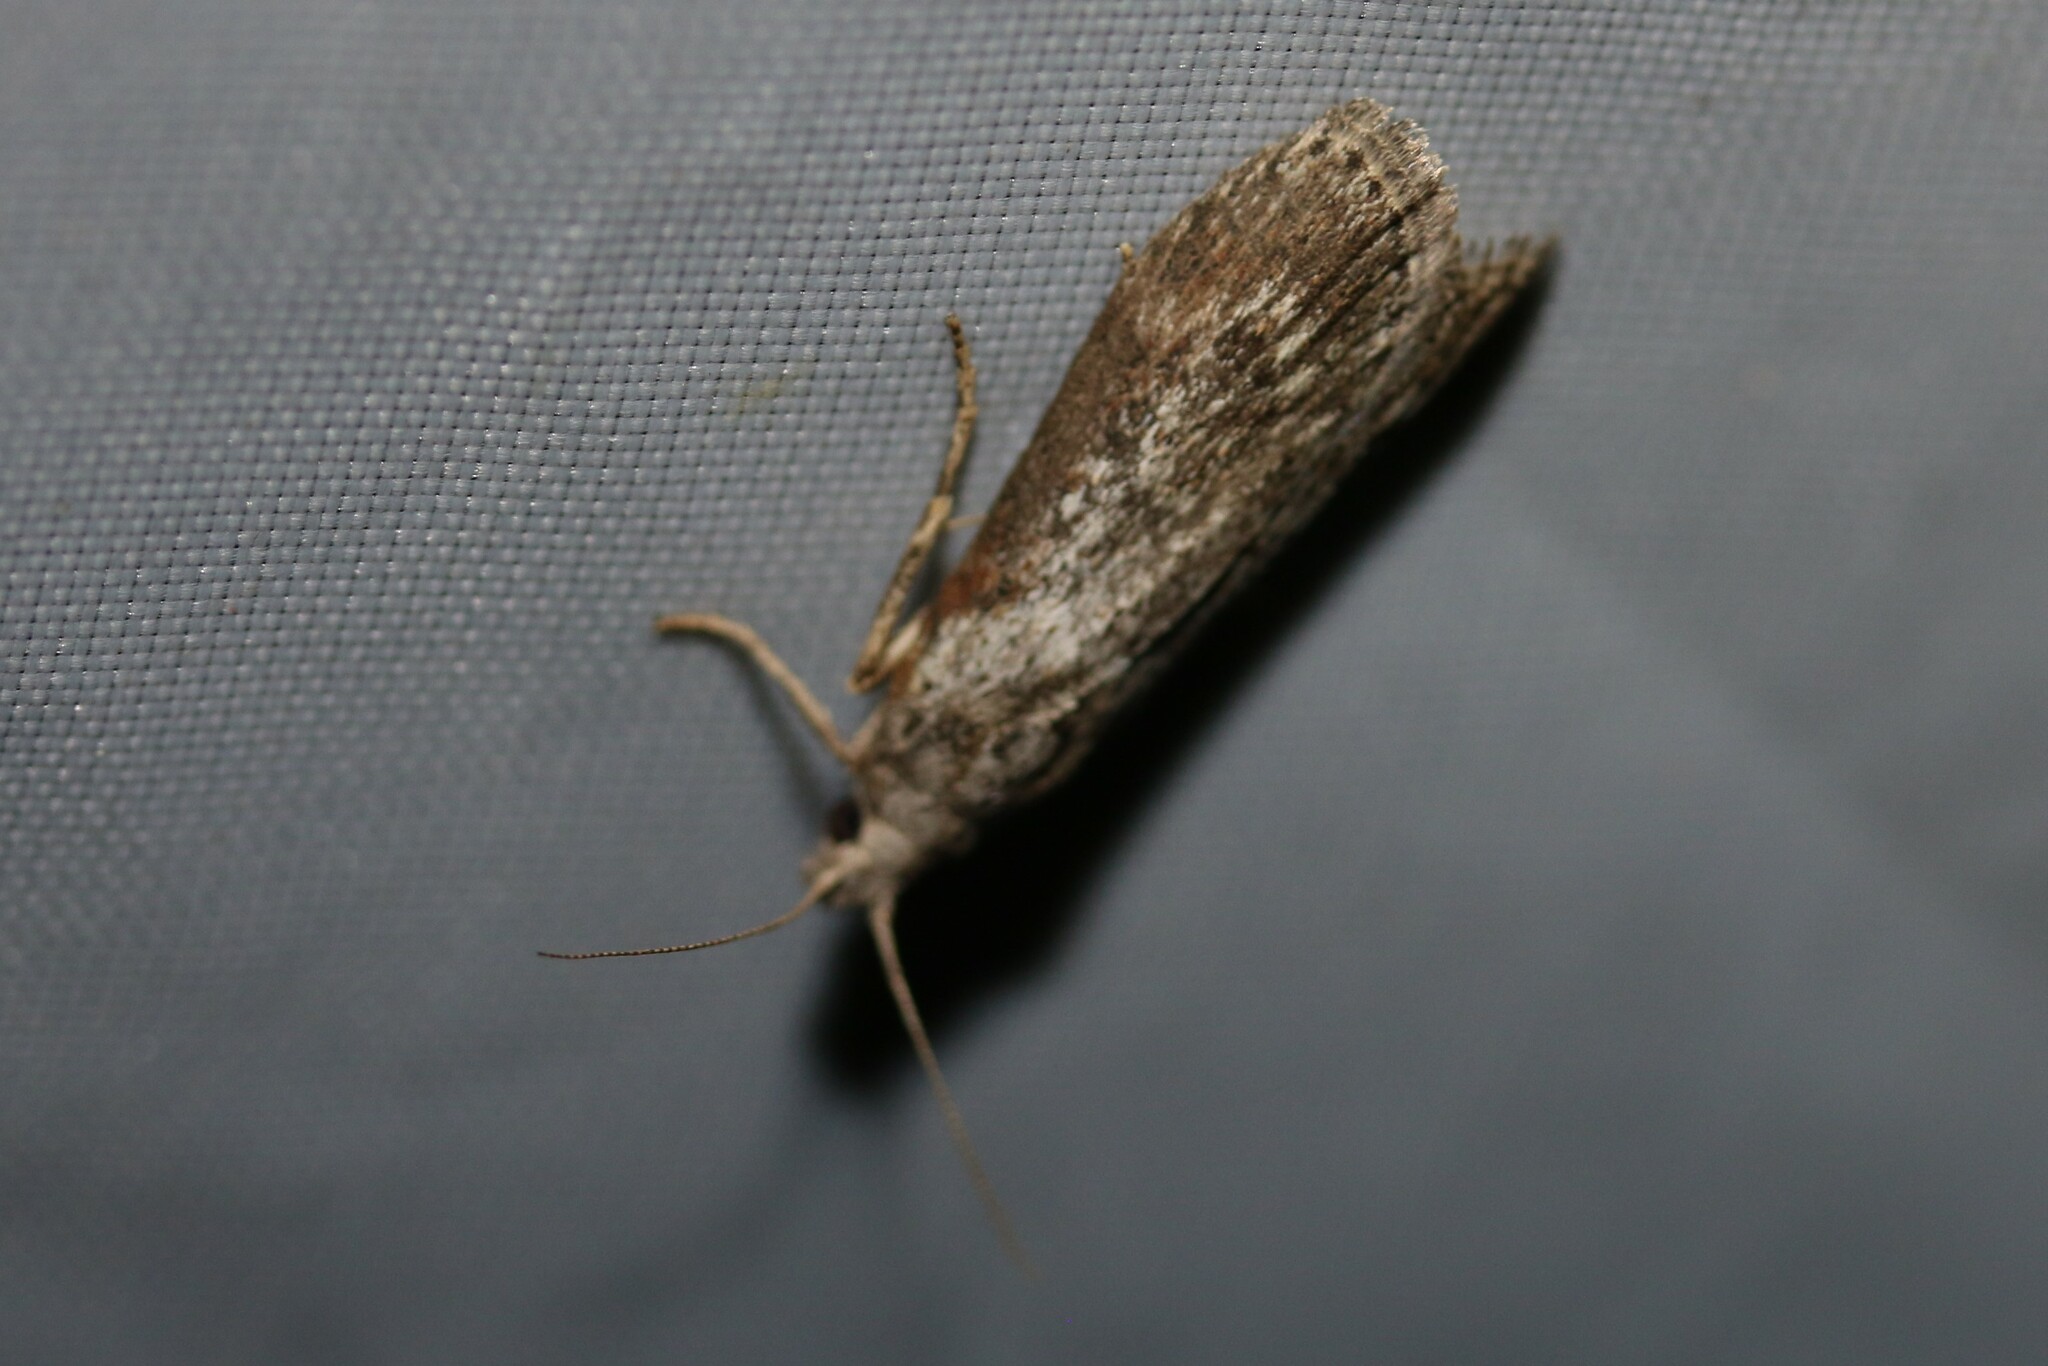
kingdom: Animalia
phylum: Arthropoda
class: Insecta
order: Lepidoptera
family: Pyralidae
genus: Lamoria
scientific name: Lamoria anella
